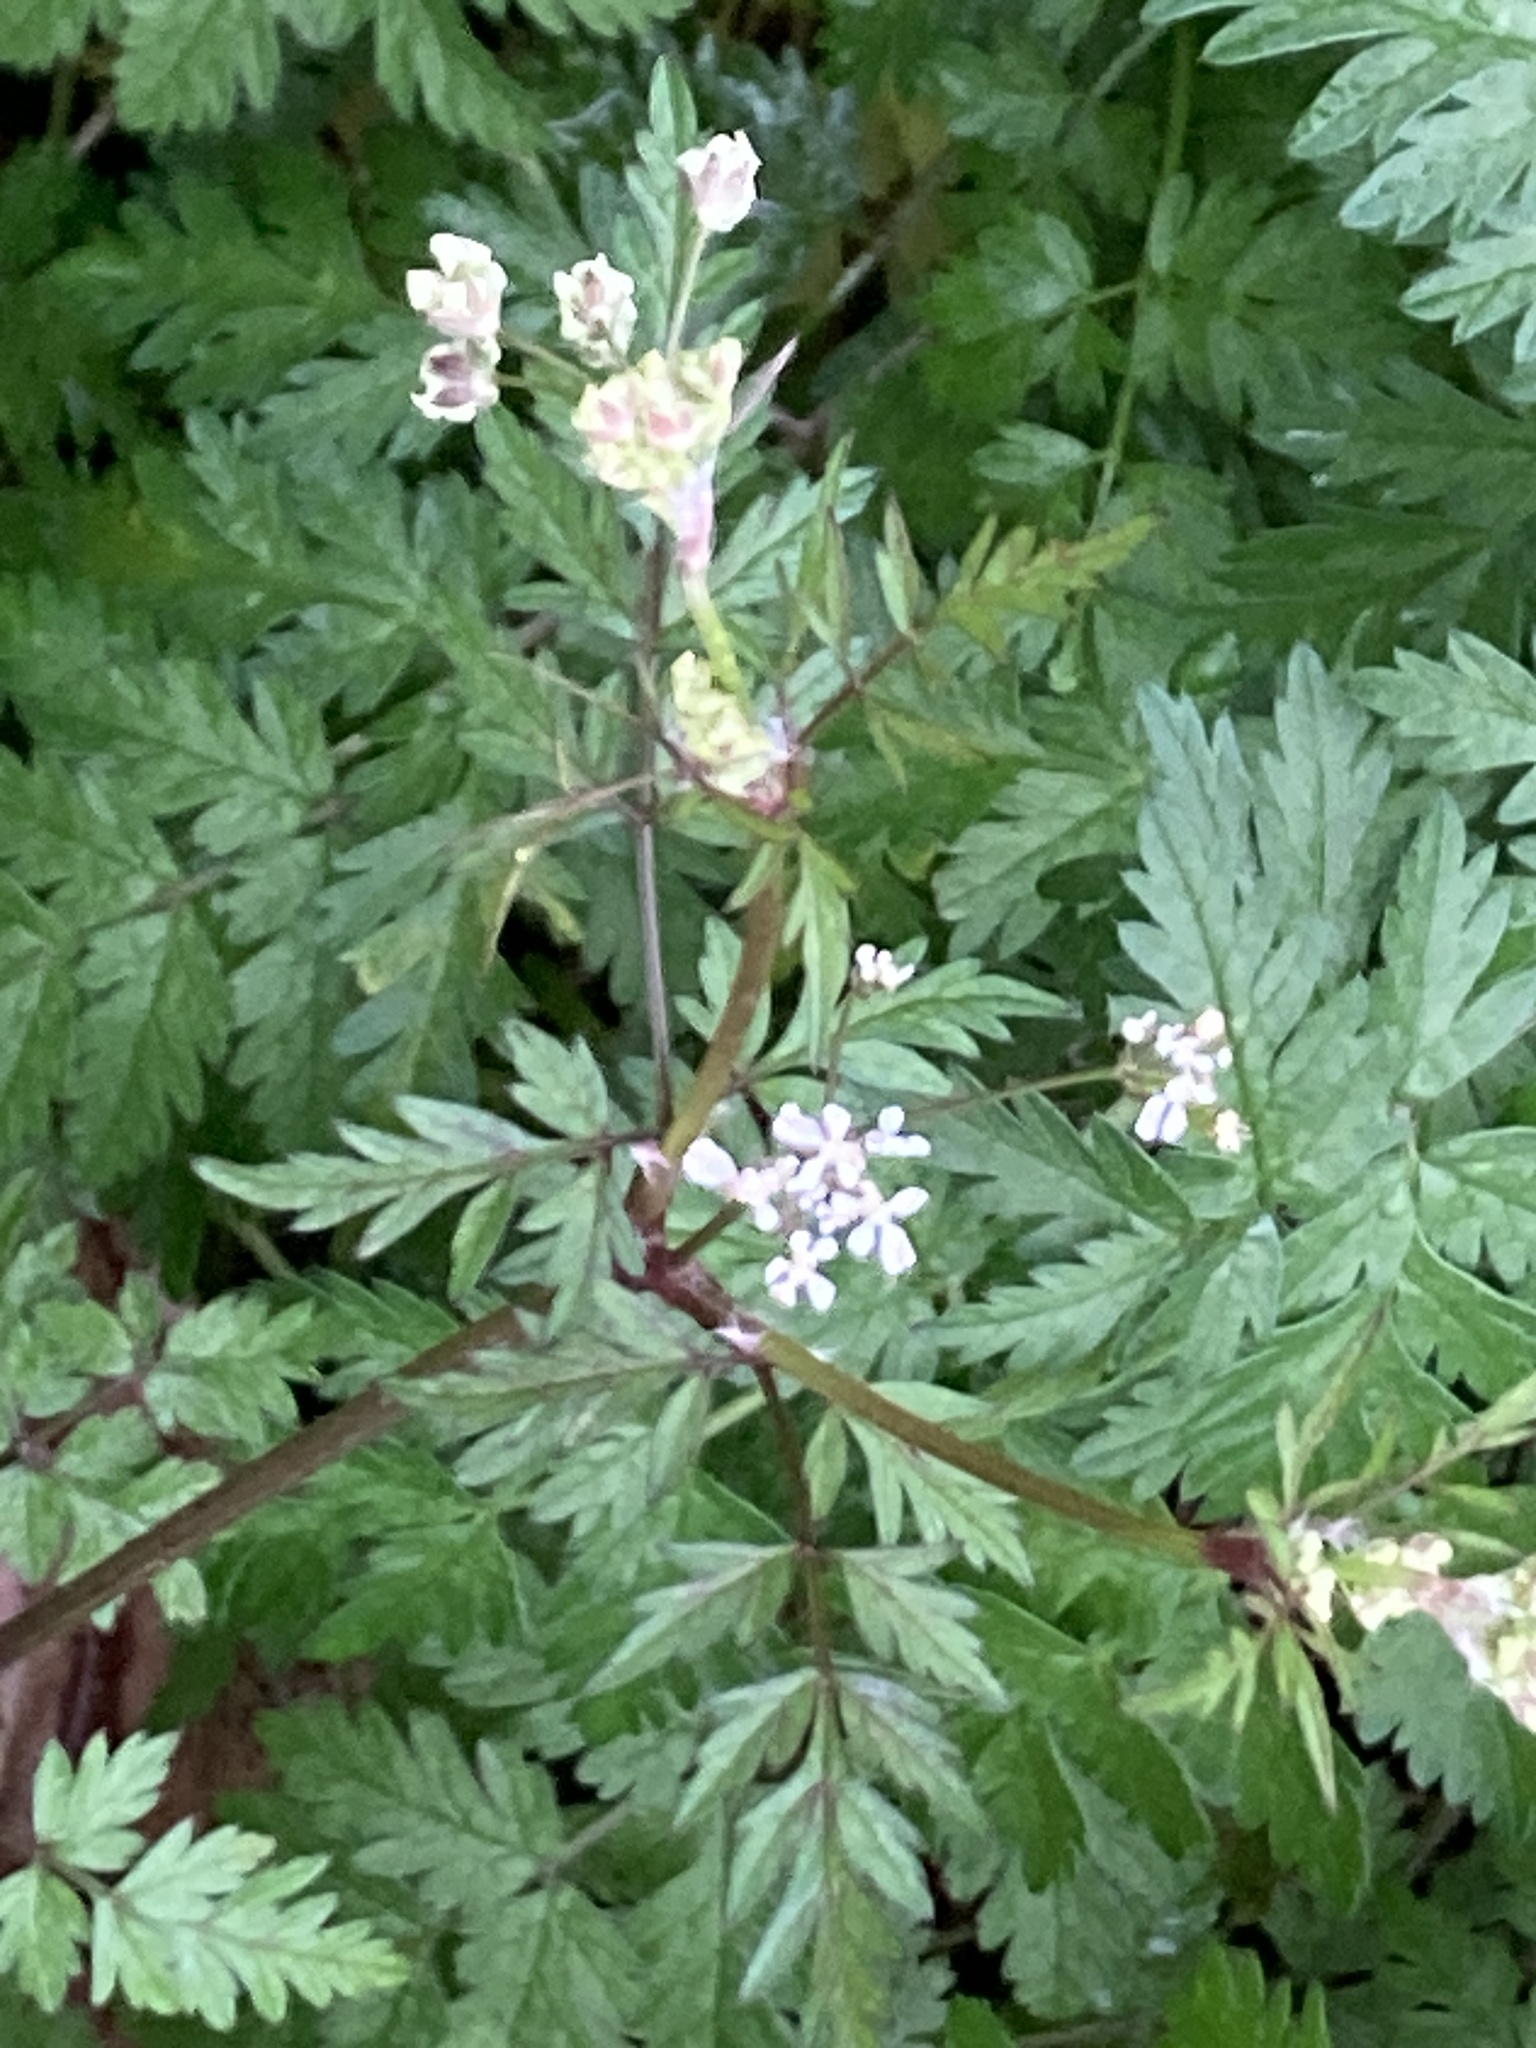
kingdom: Plantae
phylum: Tracheophyta
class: Magnoliopsida
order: Apiales
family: Apiaceae
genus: Anthriscus
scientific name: Anthriscus sylvestris
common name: Cow parsley
